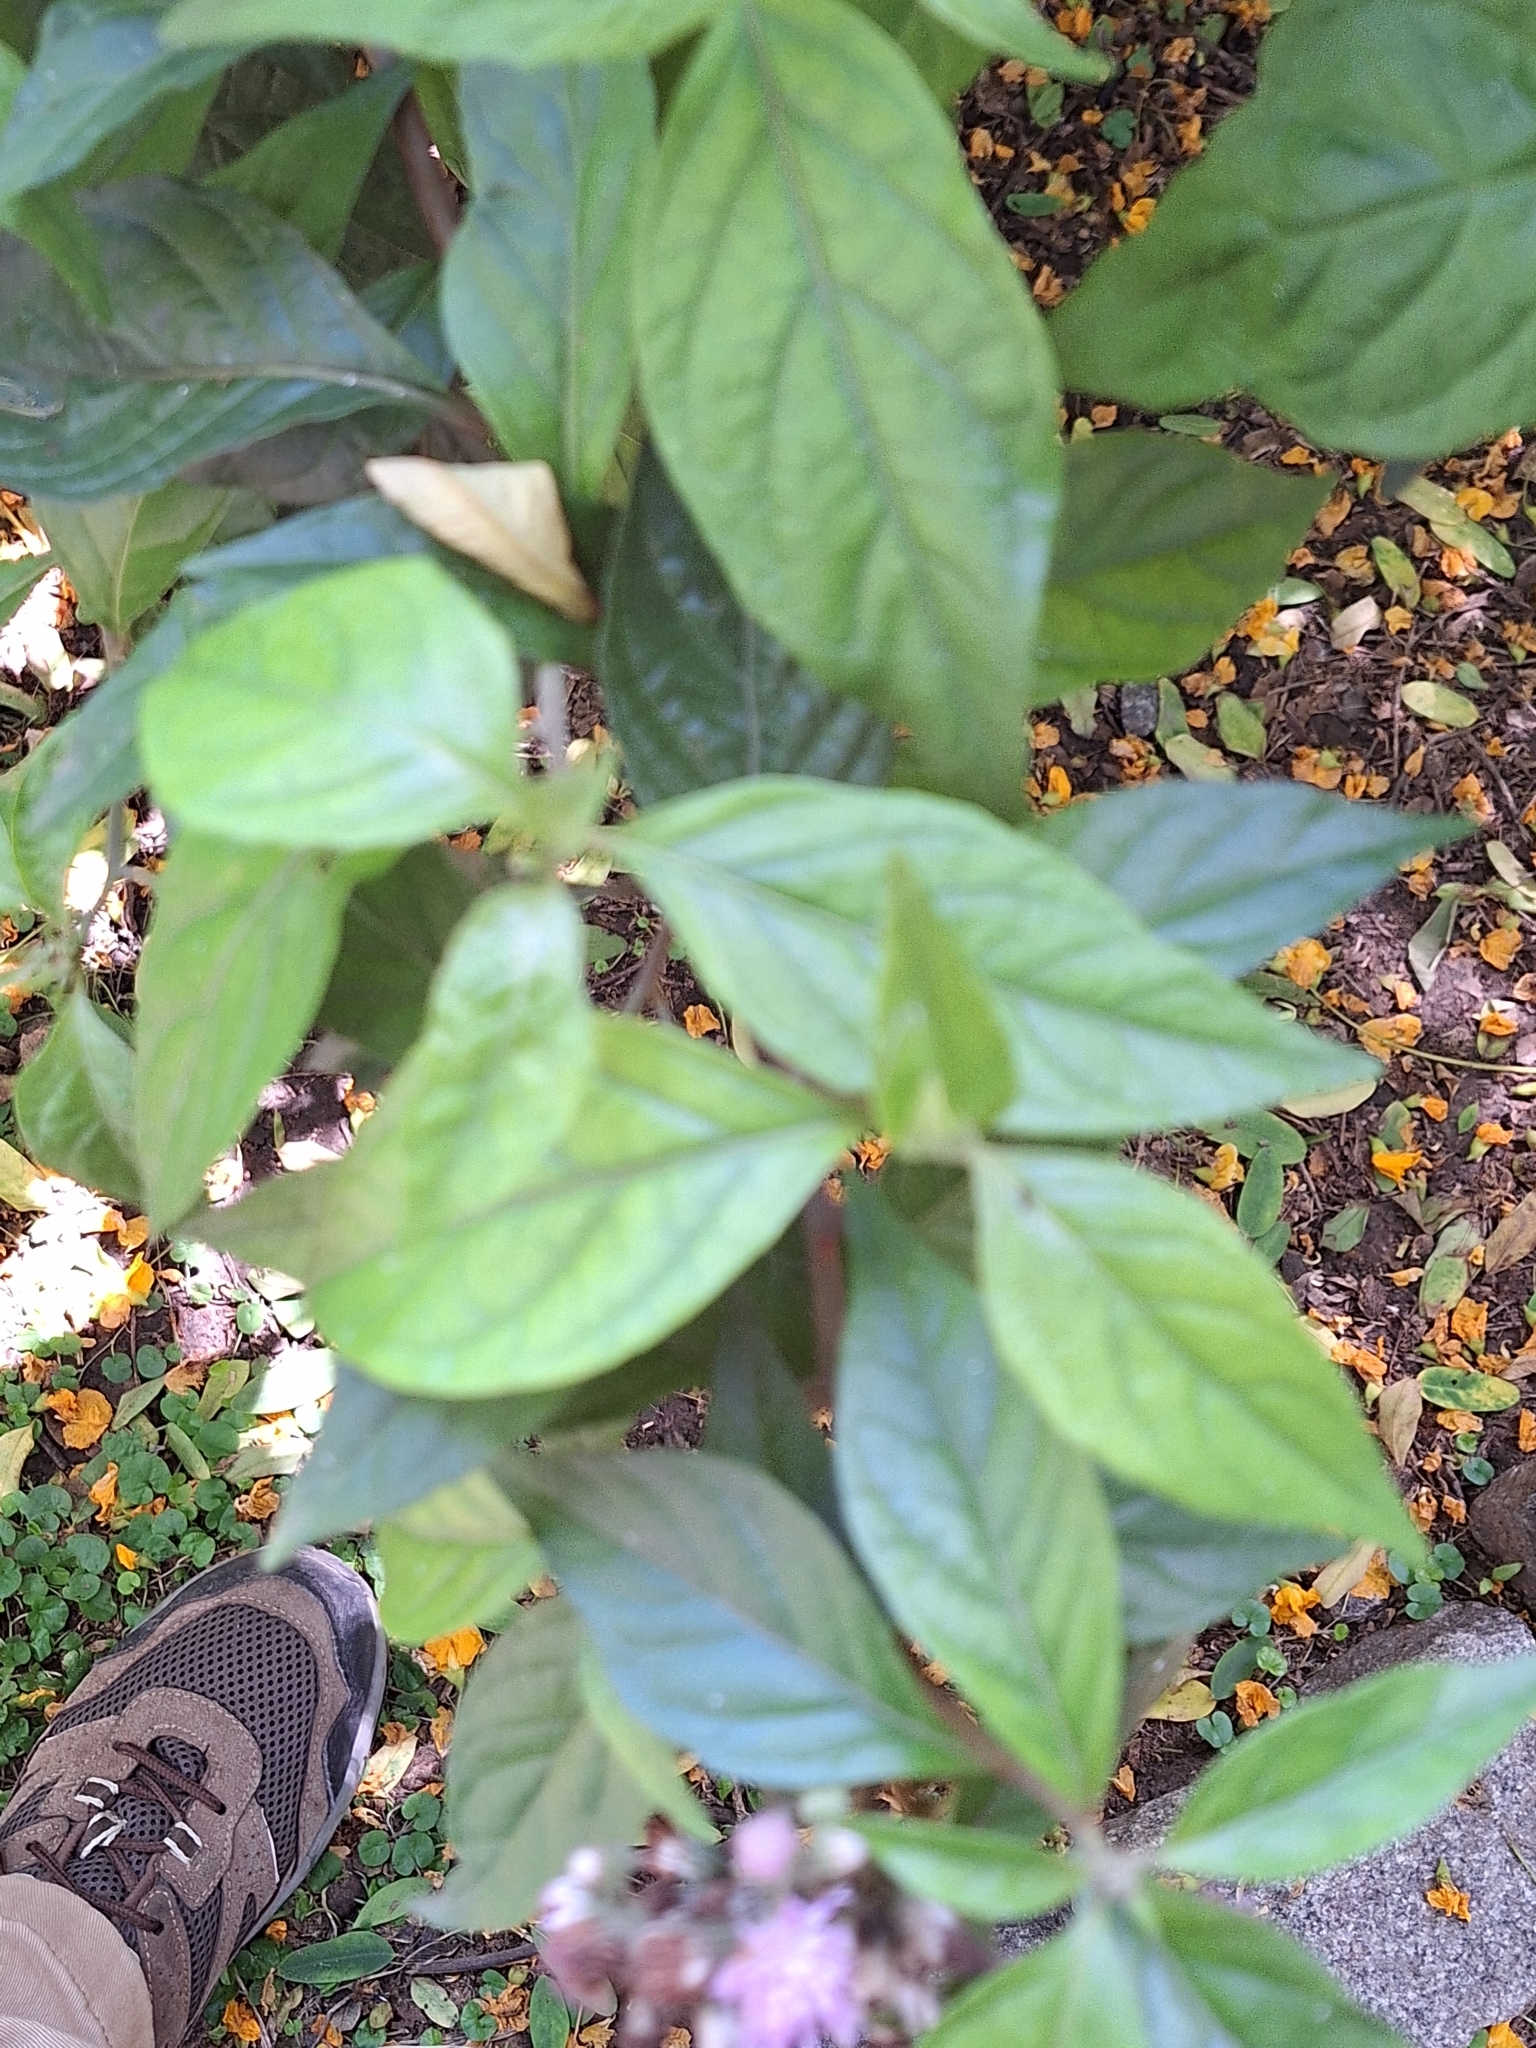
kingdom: Plantae
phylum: Tracheophyta
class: Magnoliopsida
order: Asterales
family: Asteraceae
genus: Cyrtocymura
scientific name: Cyrtocymura scorpioides
